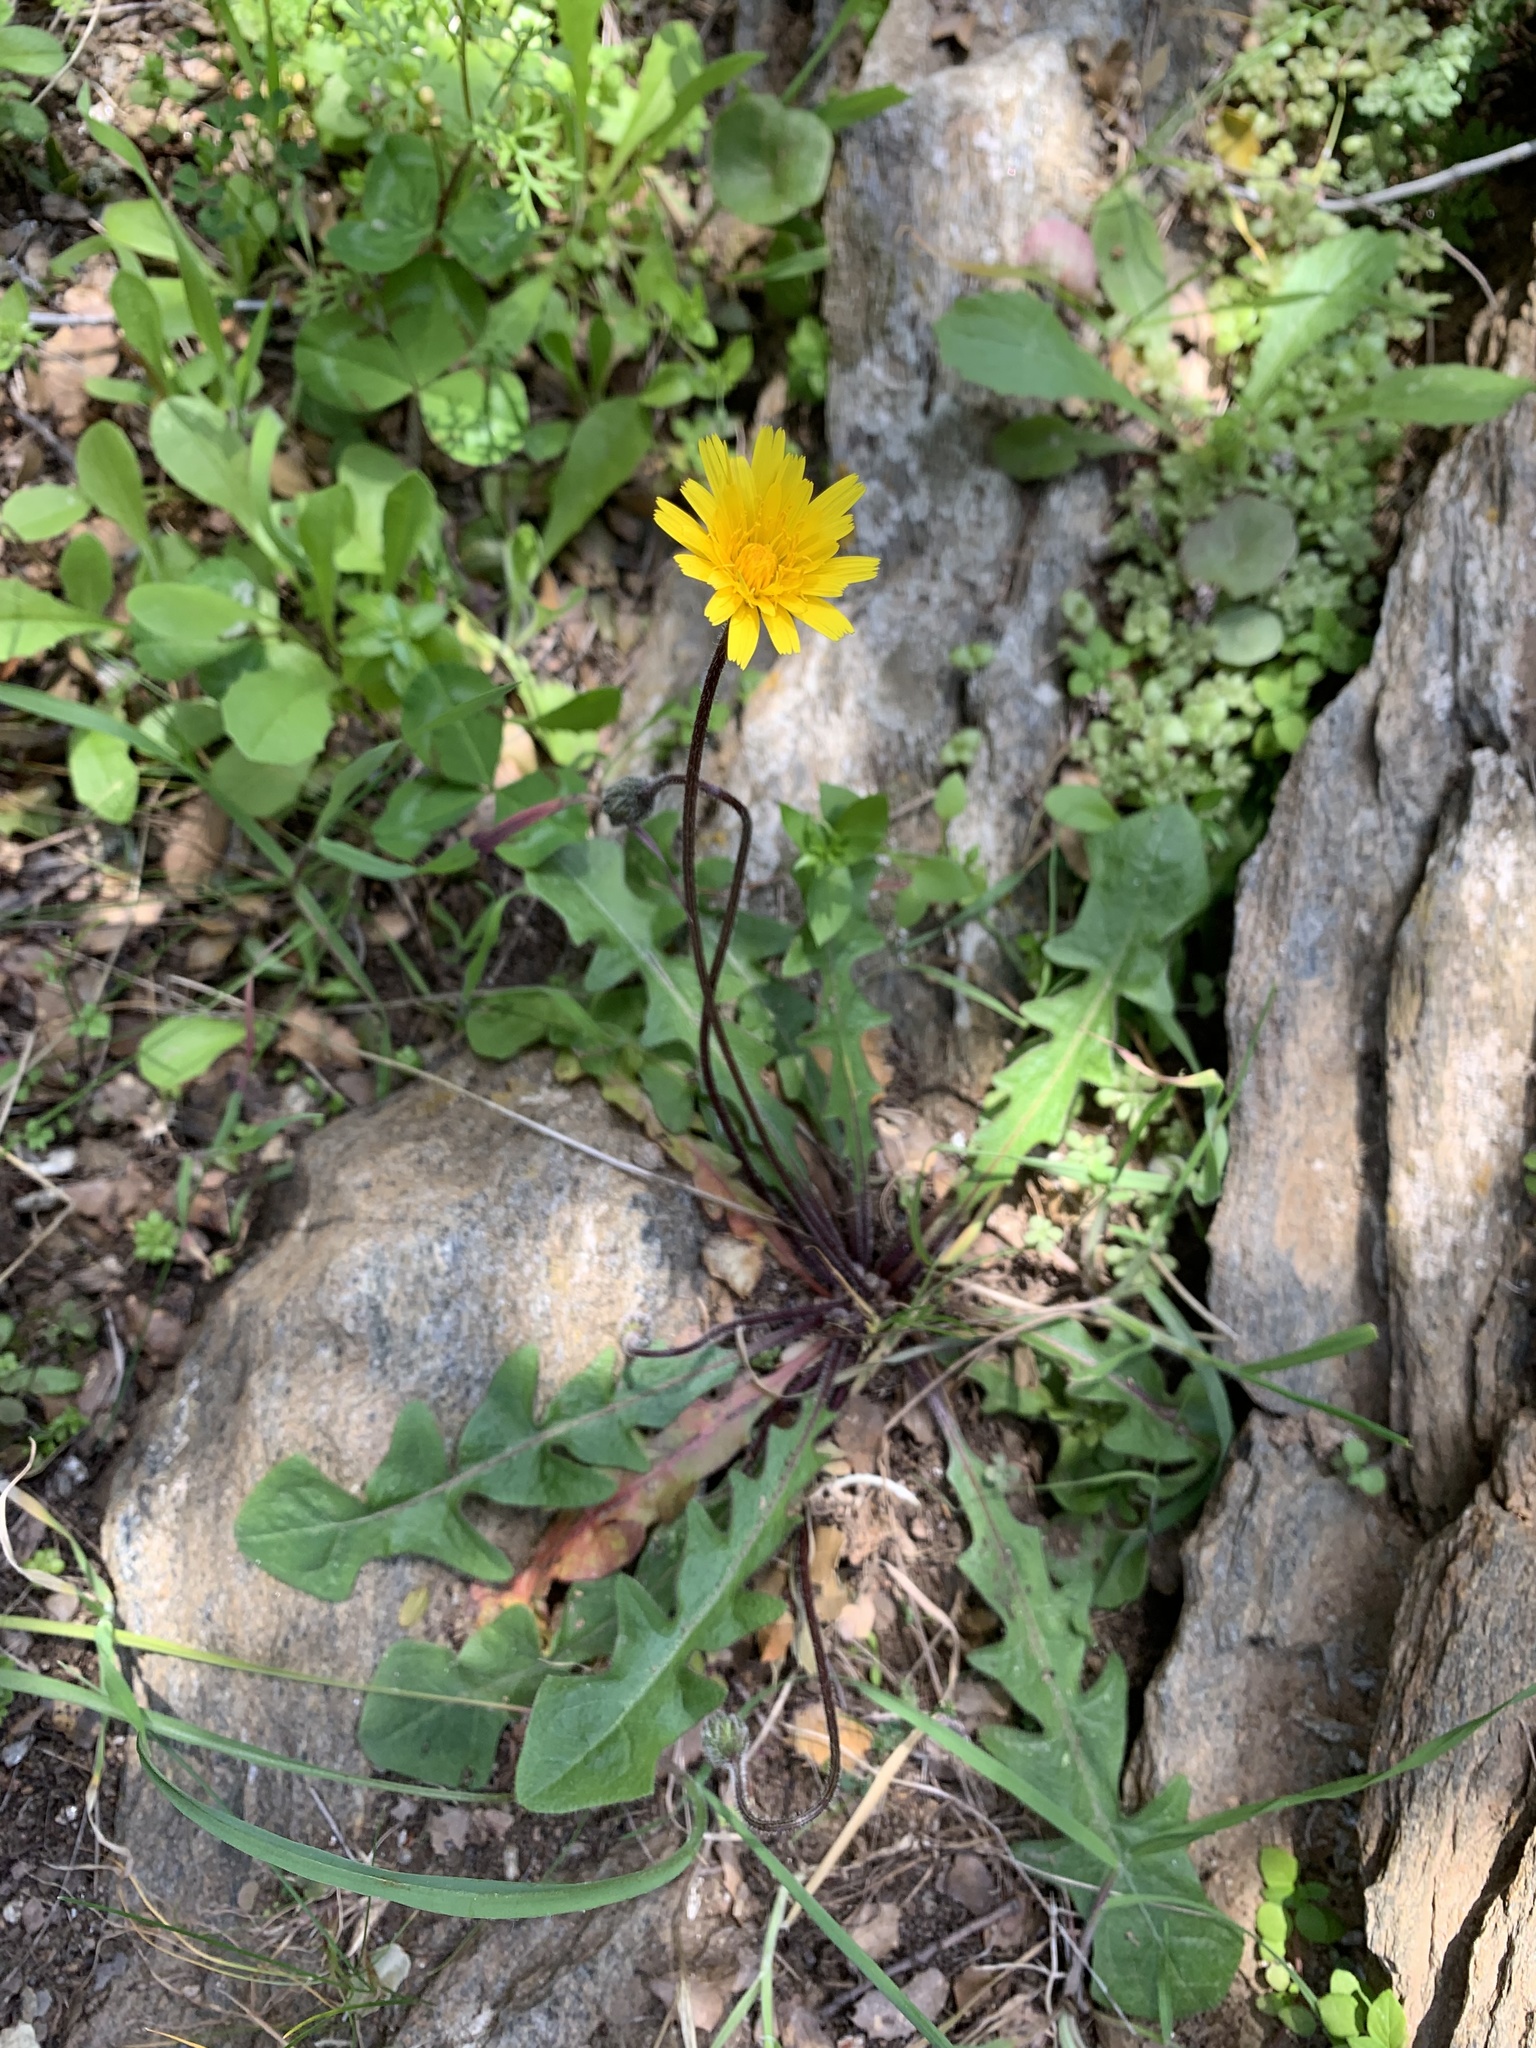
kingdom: Plantae
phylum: Tracheophyta
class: Magnoliopsida
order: Asterales
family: Asteraceae
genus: Leontodon
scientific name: Leontodon tuberosus
